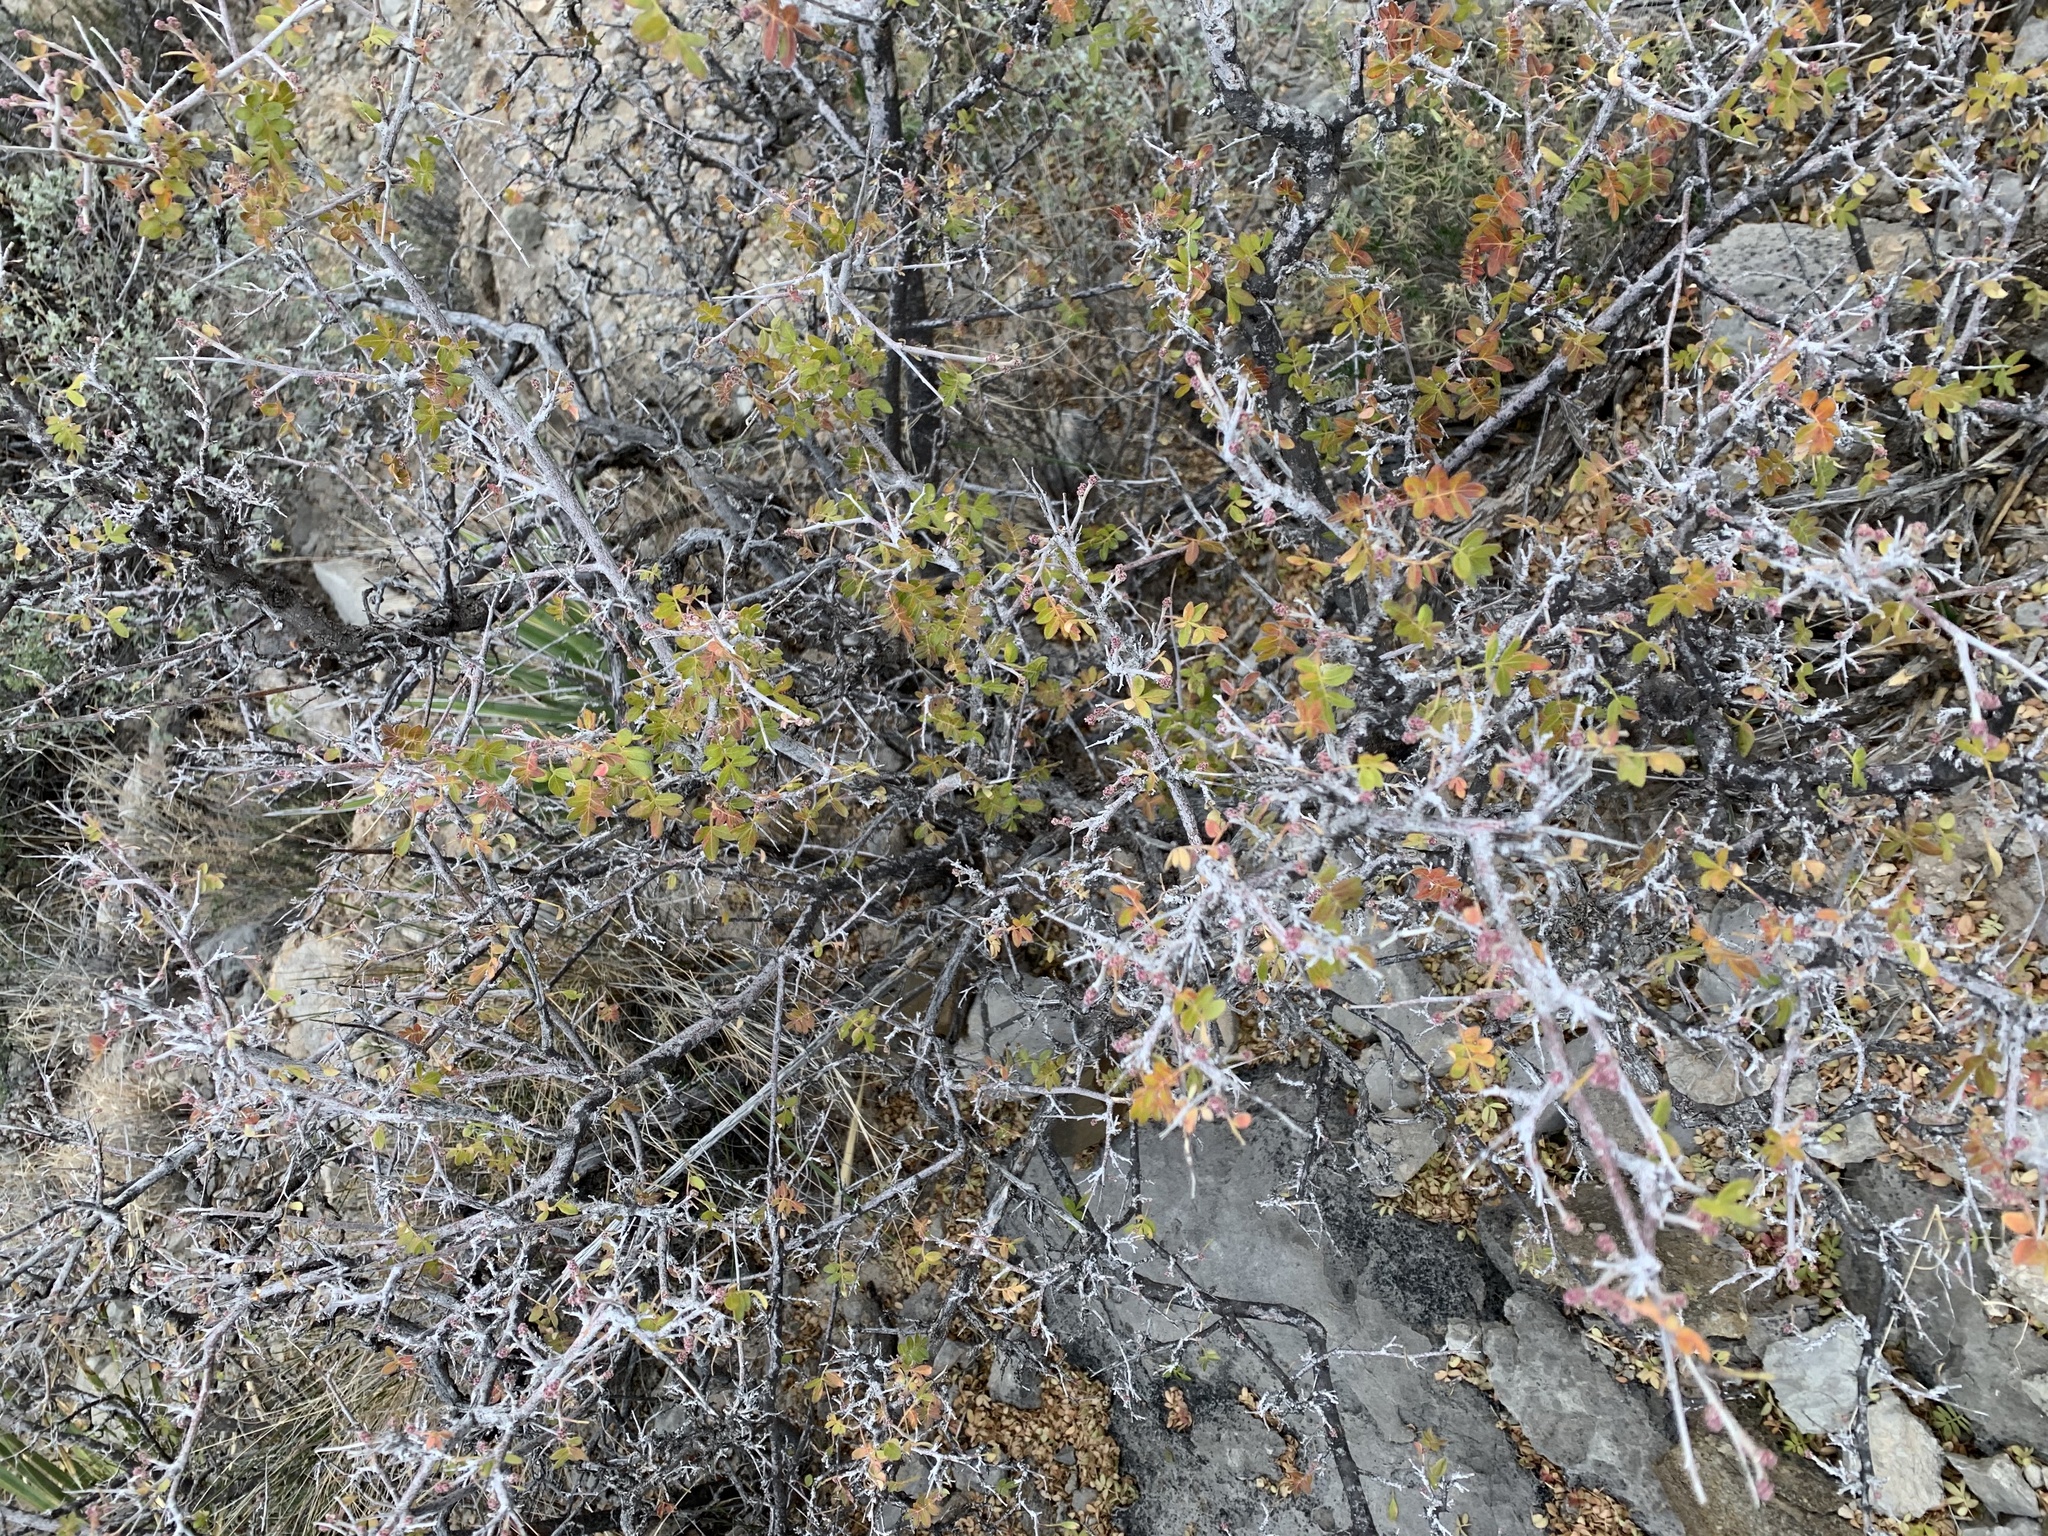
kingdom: Plantae
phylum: Tracheophyta
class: Magnoliopsida
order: Sapindales
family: Anacardiaceae
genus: Rhus
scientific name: Rhus microphylla
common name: Desert sumac
